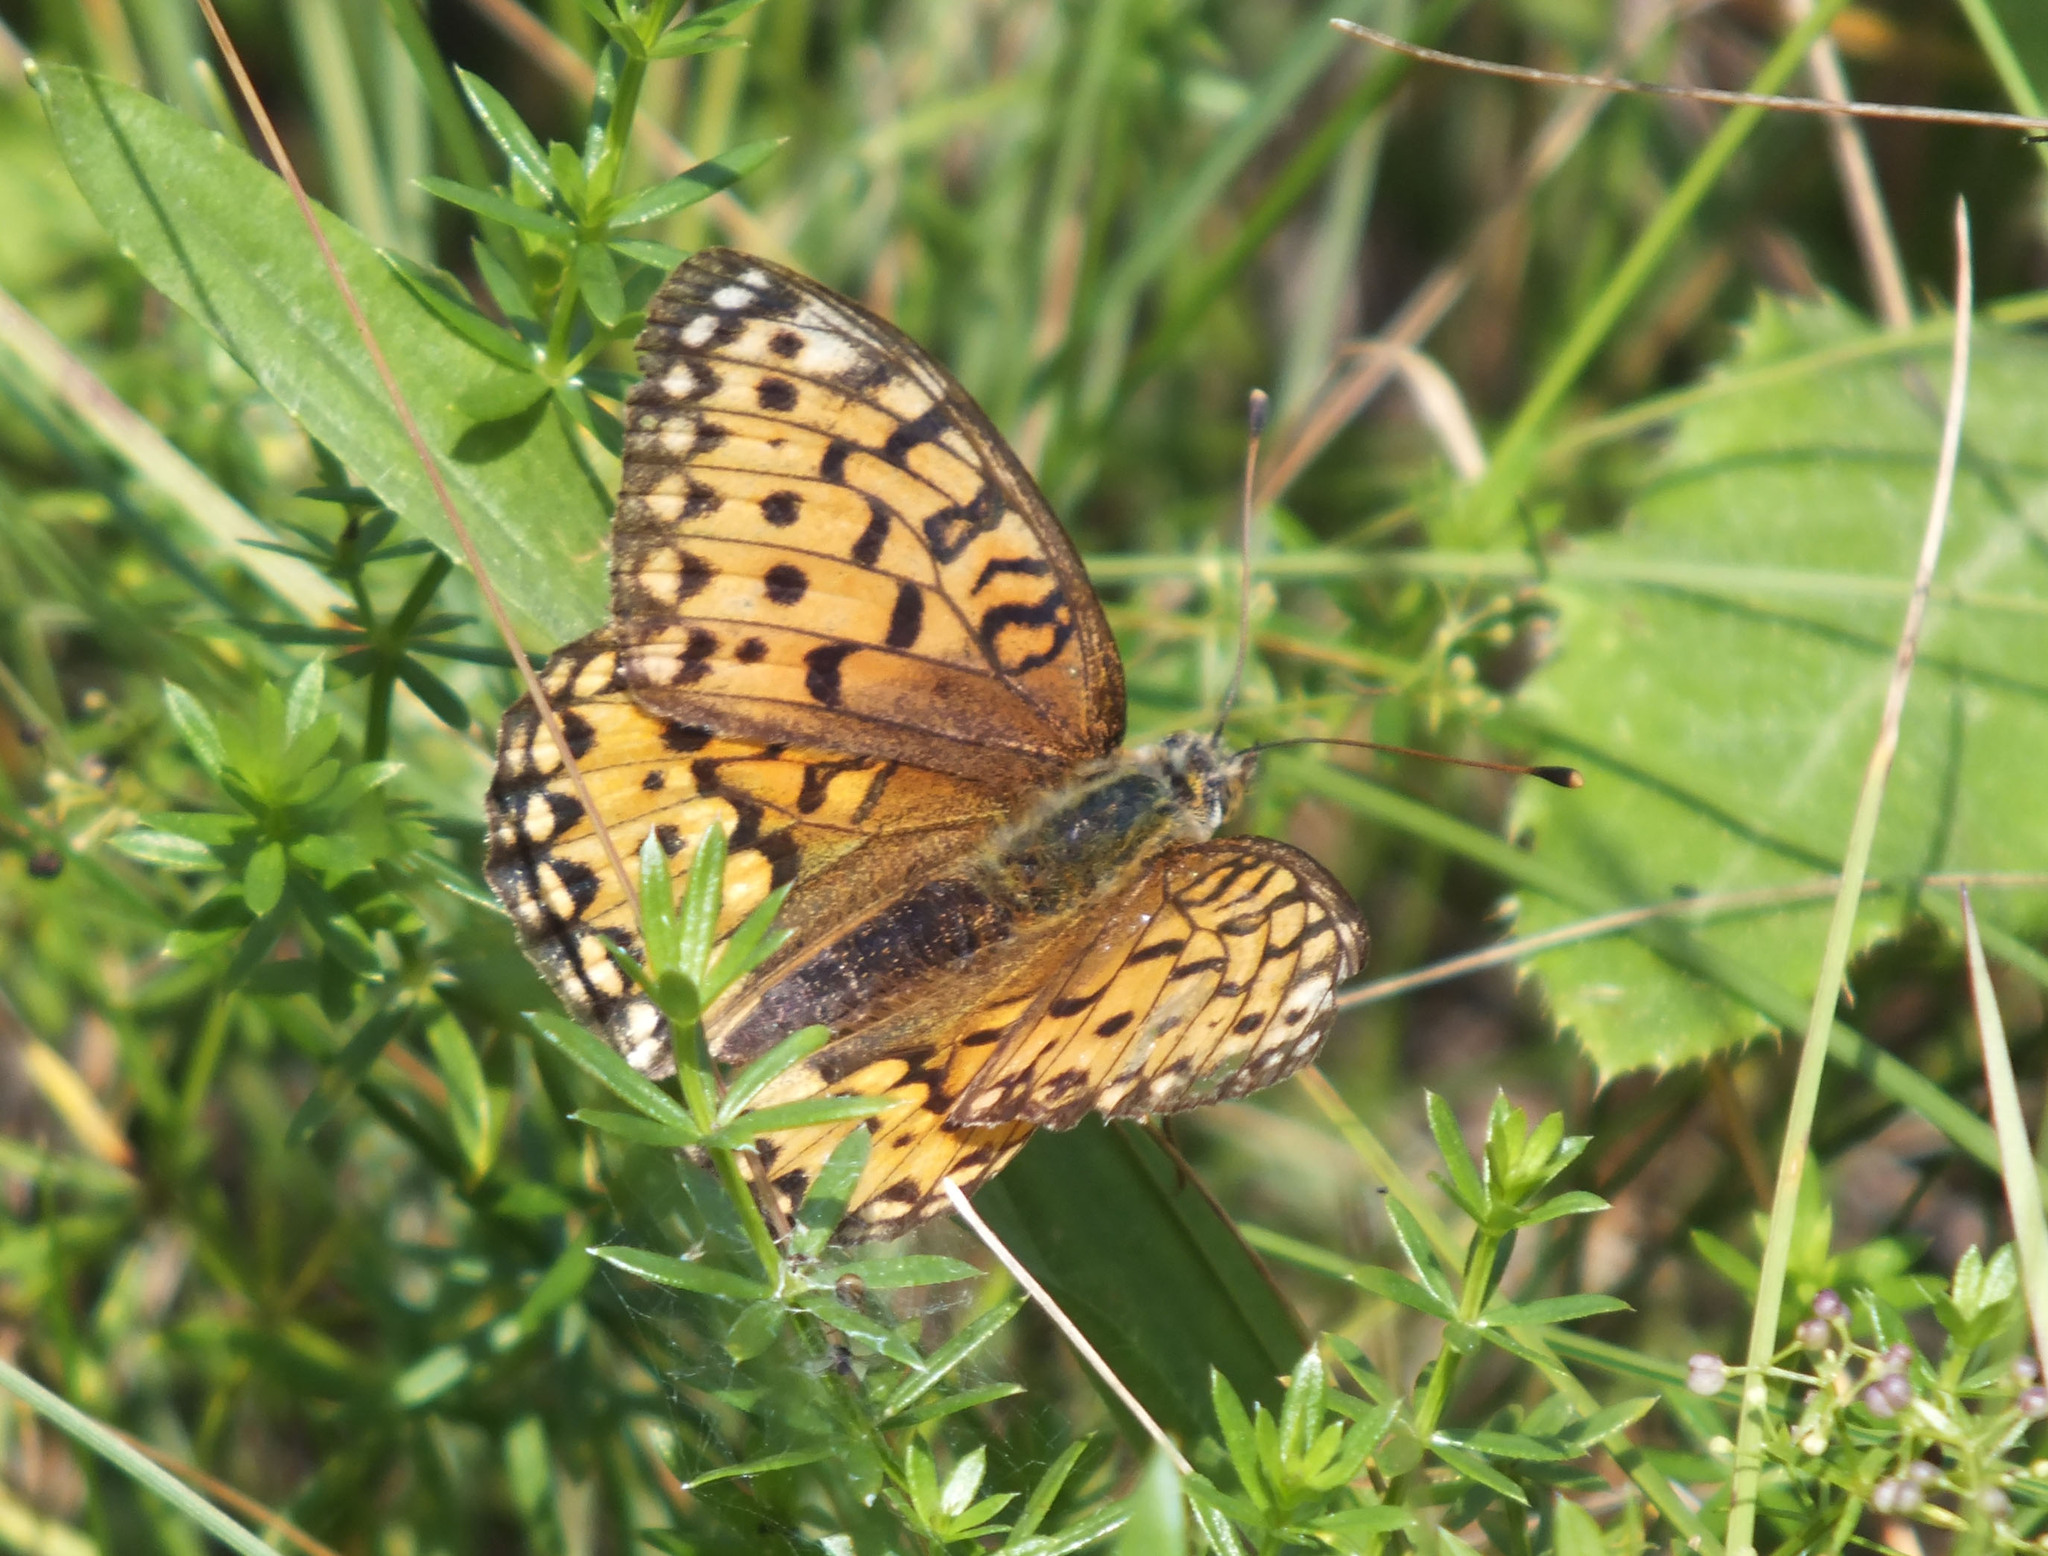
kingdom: Animalia
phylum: Arthropoda
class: Insecta
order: Lepidoptera
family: Nymphalidae
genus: Speyeria
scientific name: Speyeria aglaja
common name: Dark green fritillary
